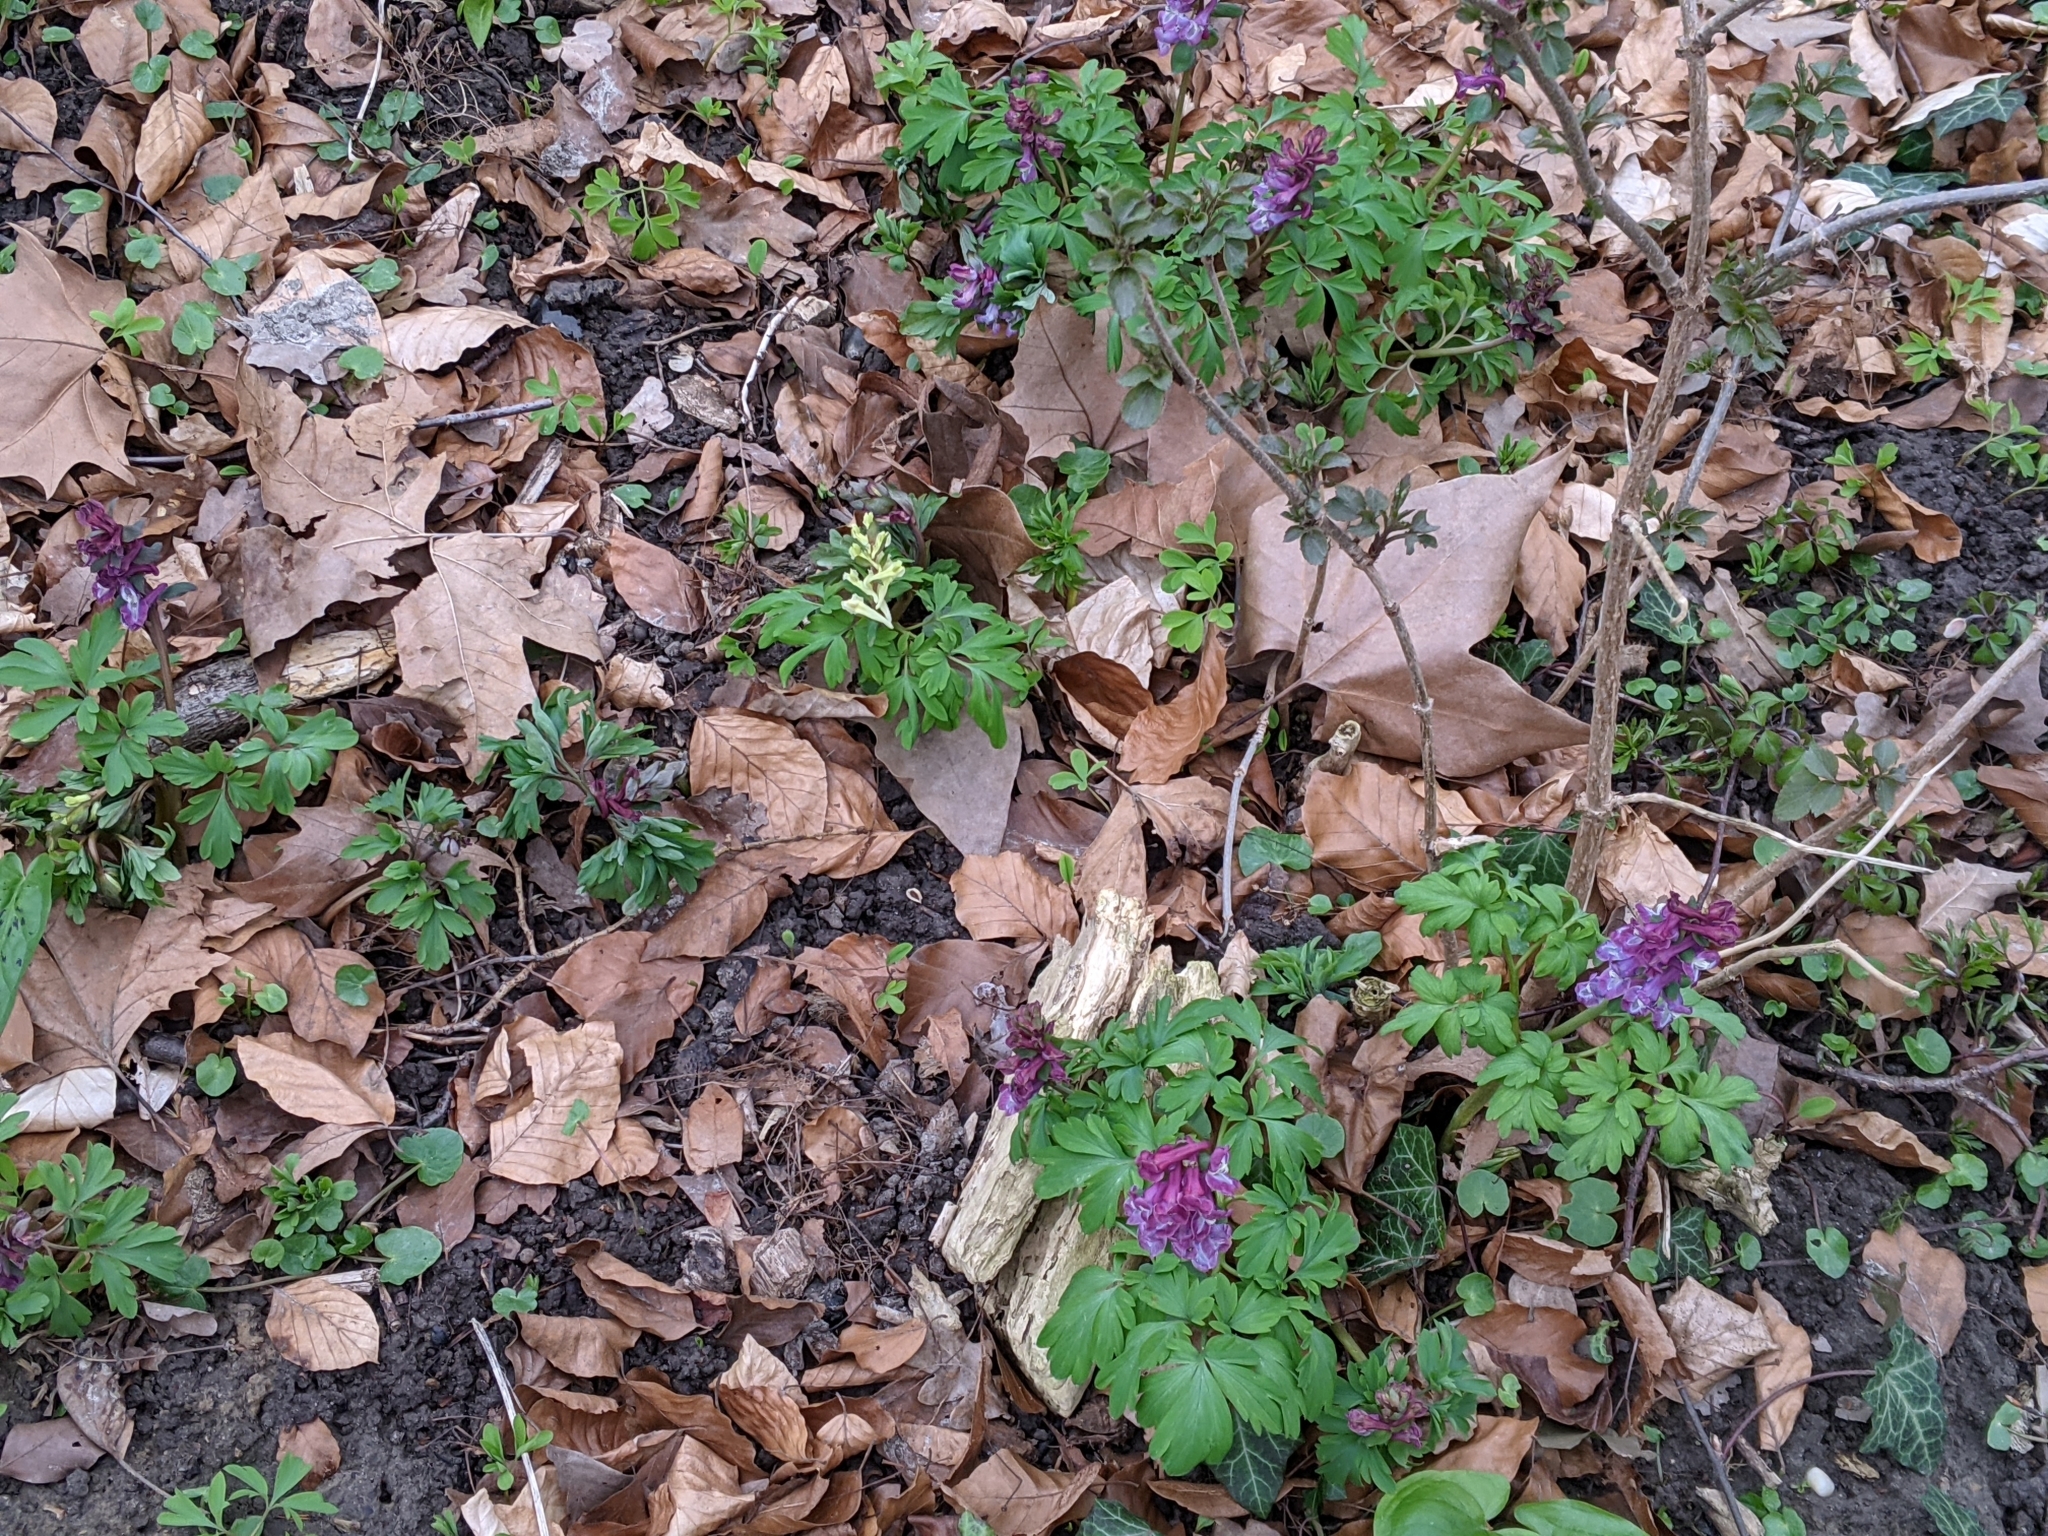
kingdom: Plantae
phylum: Tracheophyta
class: Magnoliopsida
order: Ranunculales
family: Papaveraceae
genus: Corydalis
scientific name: Corydalis cava
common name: Hollowroot
